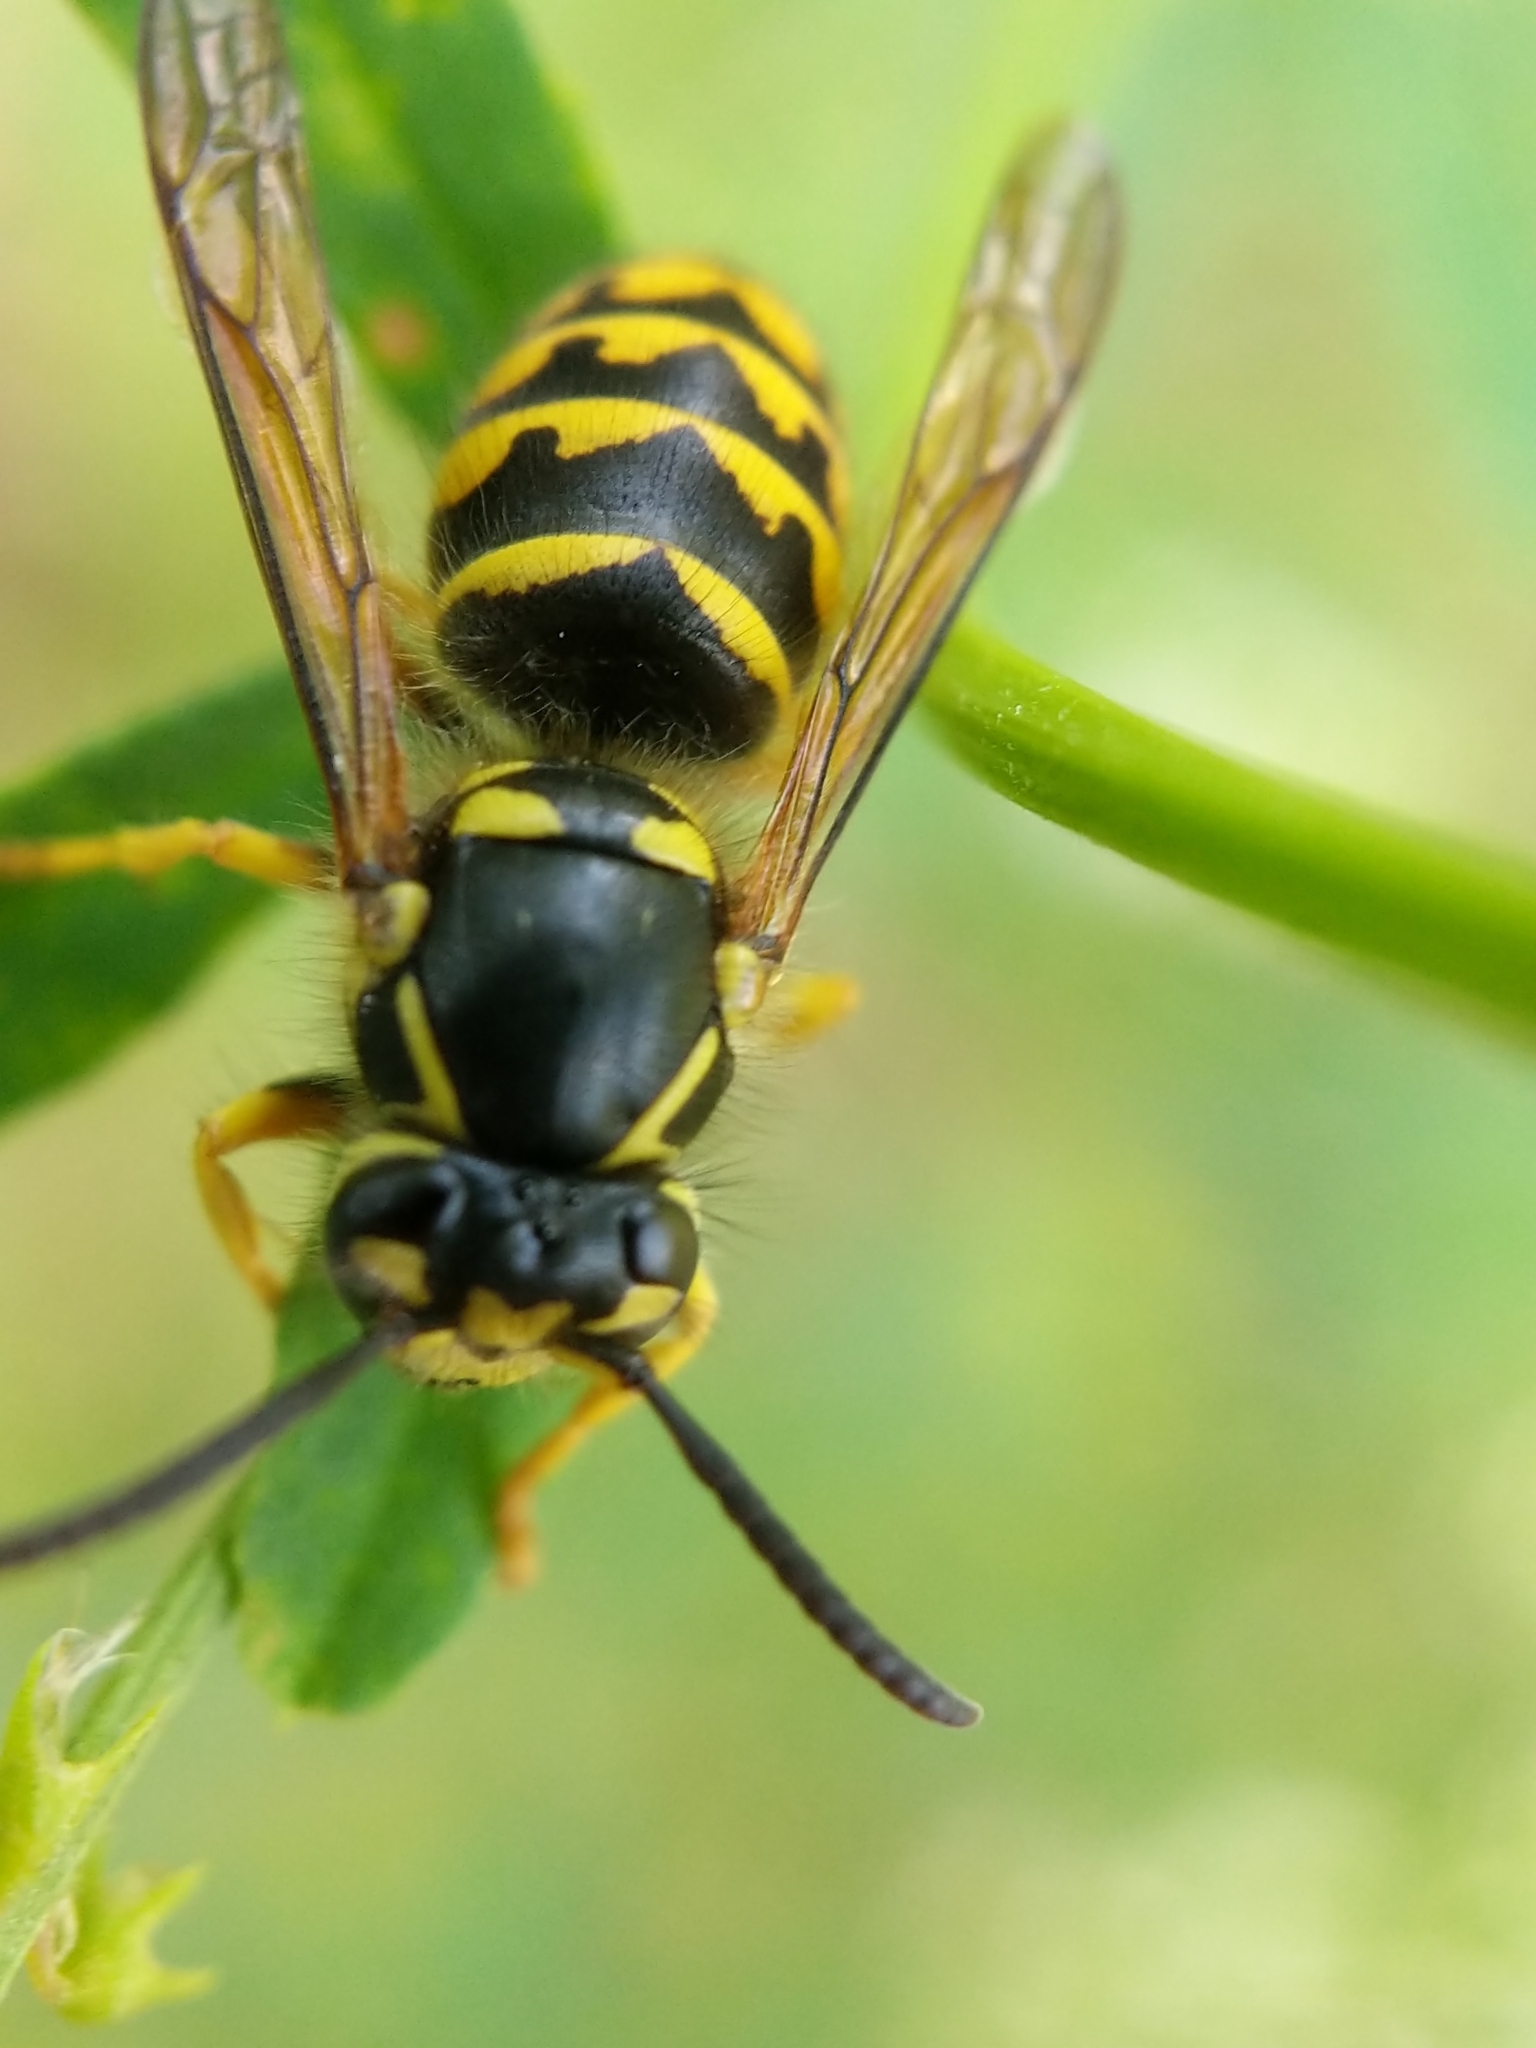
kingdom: Animalia
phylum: Arthropoda
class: Insecta
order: Hymenoptera
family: Vespidae
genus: Dolichovespula
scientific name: Dolichovespula arenaria
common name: Aerial yellowjacket
